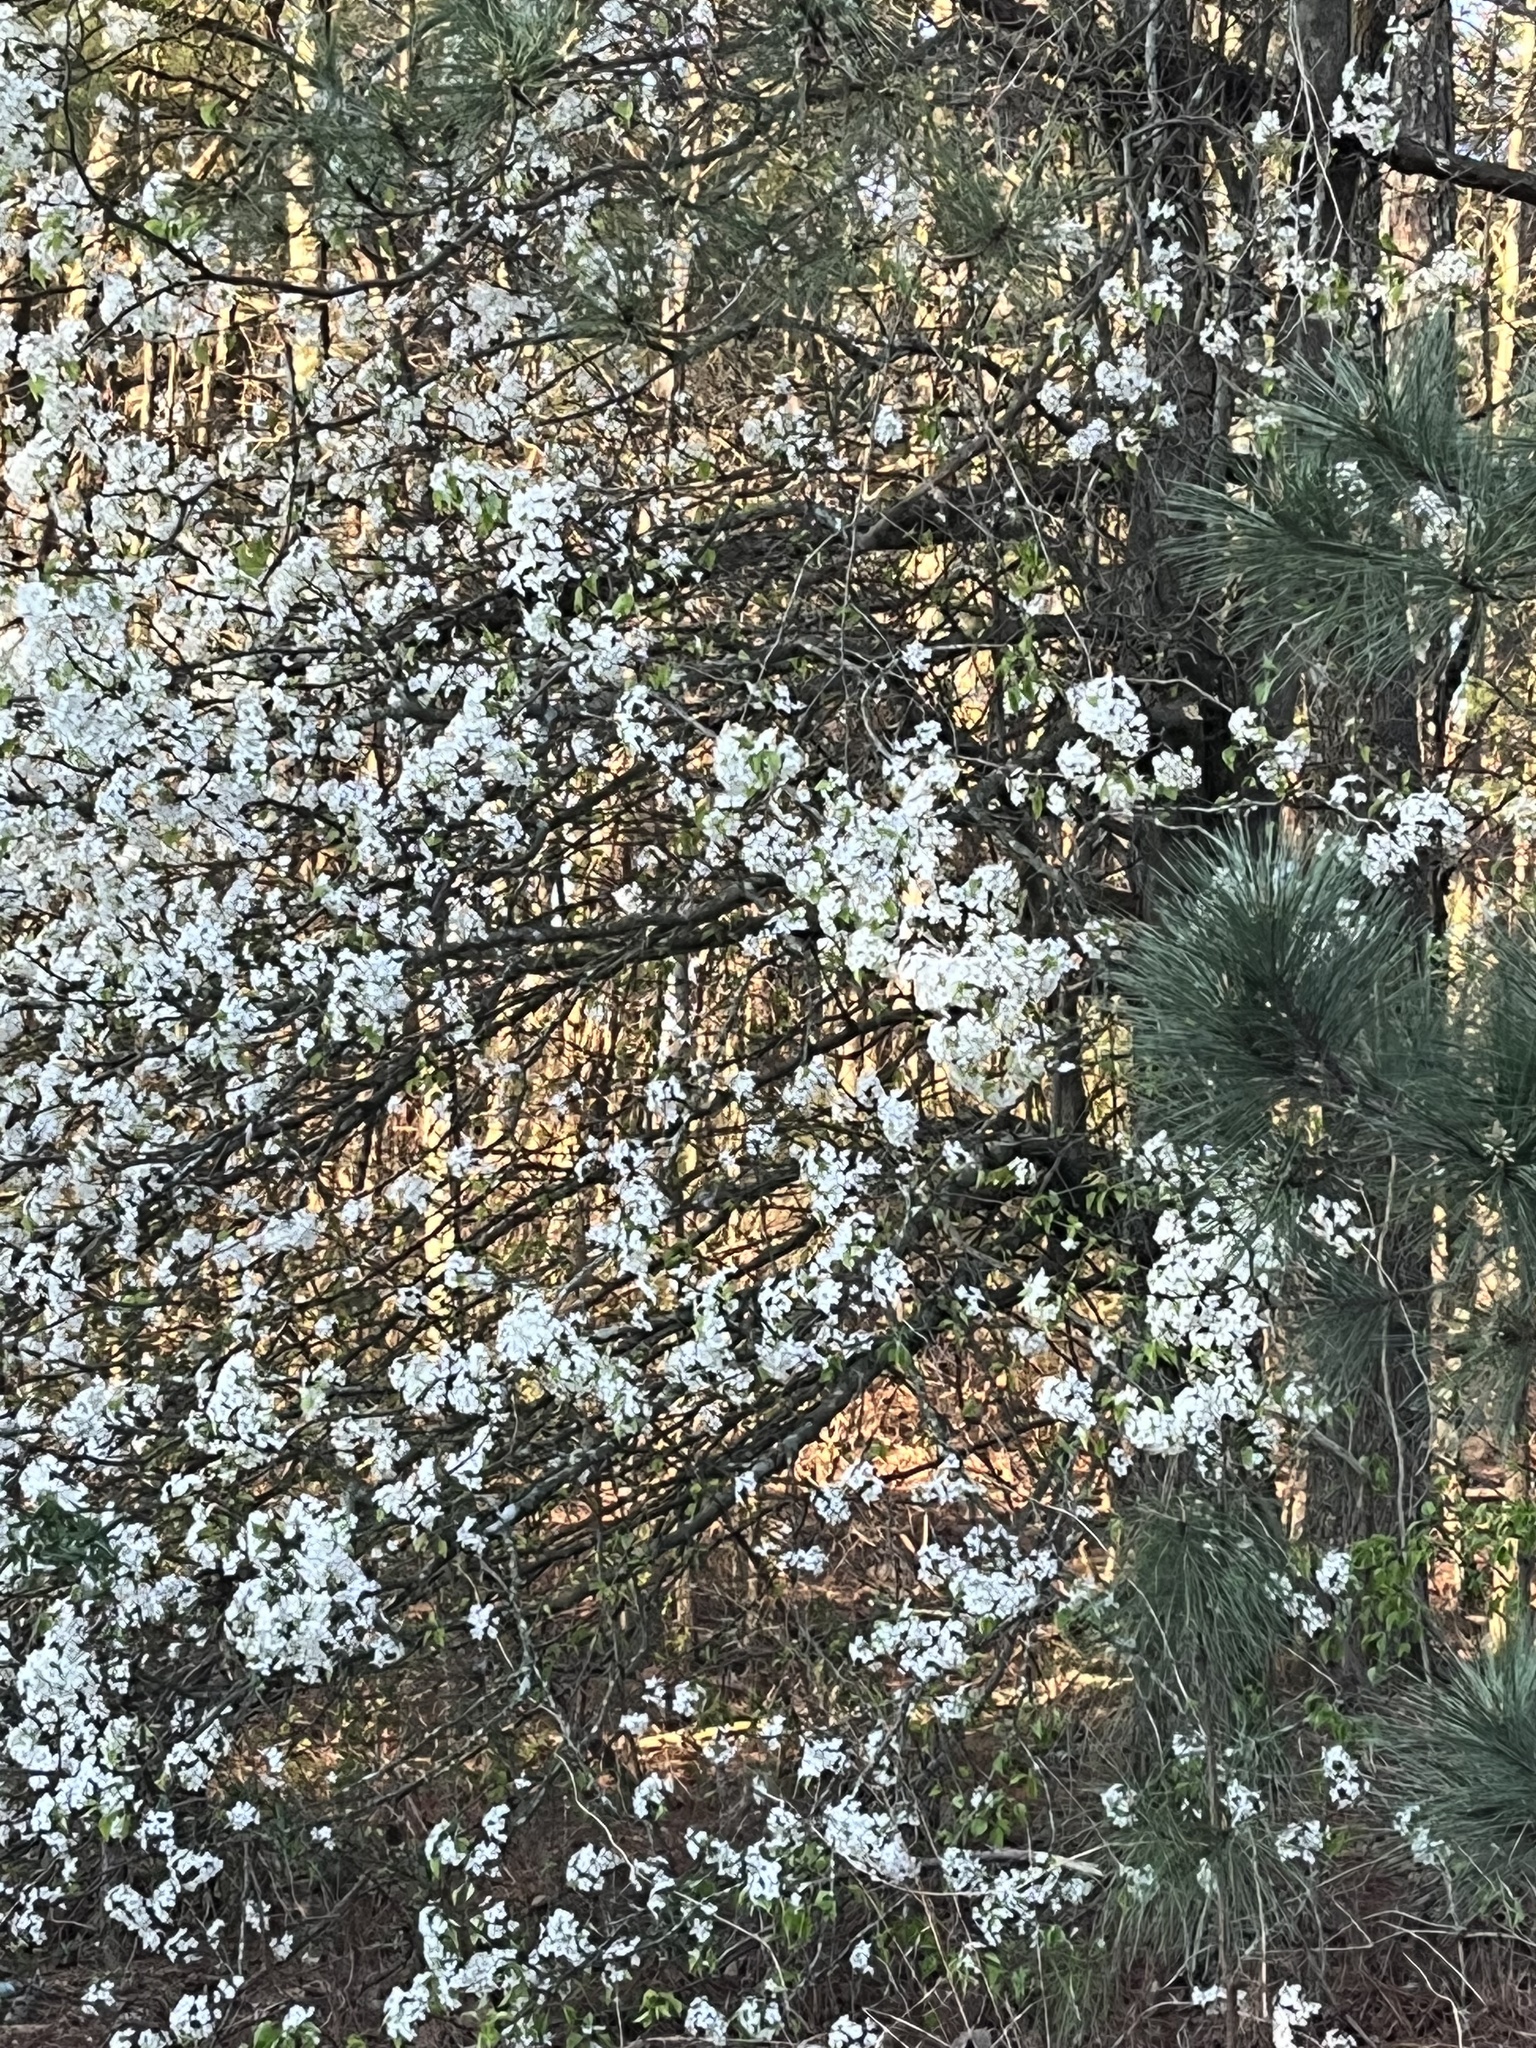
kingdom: Plantae
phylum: Tracheophyta
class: Magnoliopsida
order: Rosales
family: Rosaceae
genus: Pyrus
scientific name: Pyrus calleryana
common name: Callery pear
